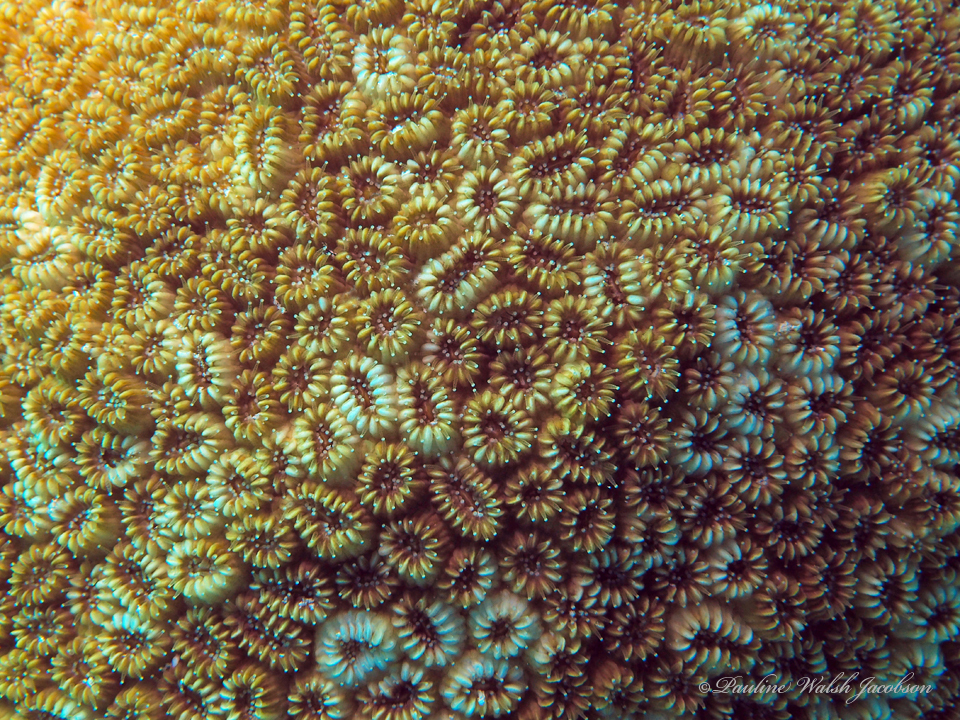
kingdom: Animalia
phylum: Cnidaria
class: Anthozoa
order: Scleractinia
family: Meandrinidae
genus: Dichocoenia
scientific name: Dichocoenia stokesii
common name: Pineapple coral
